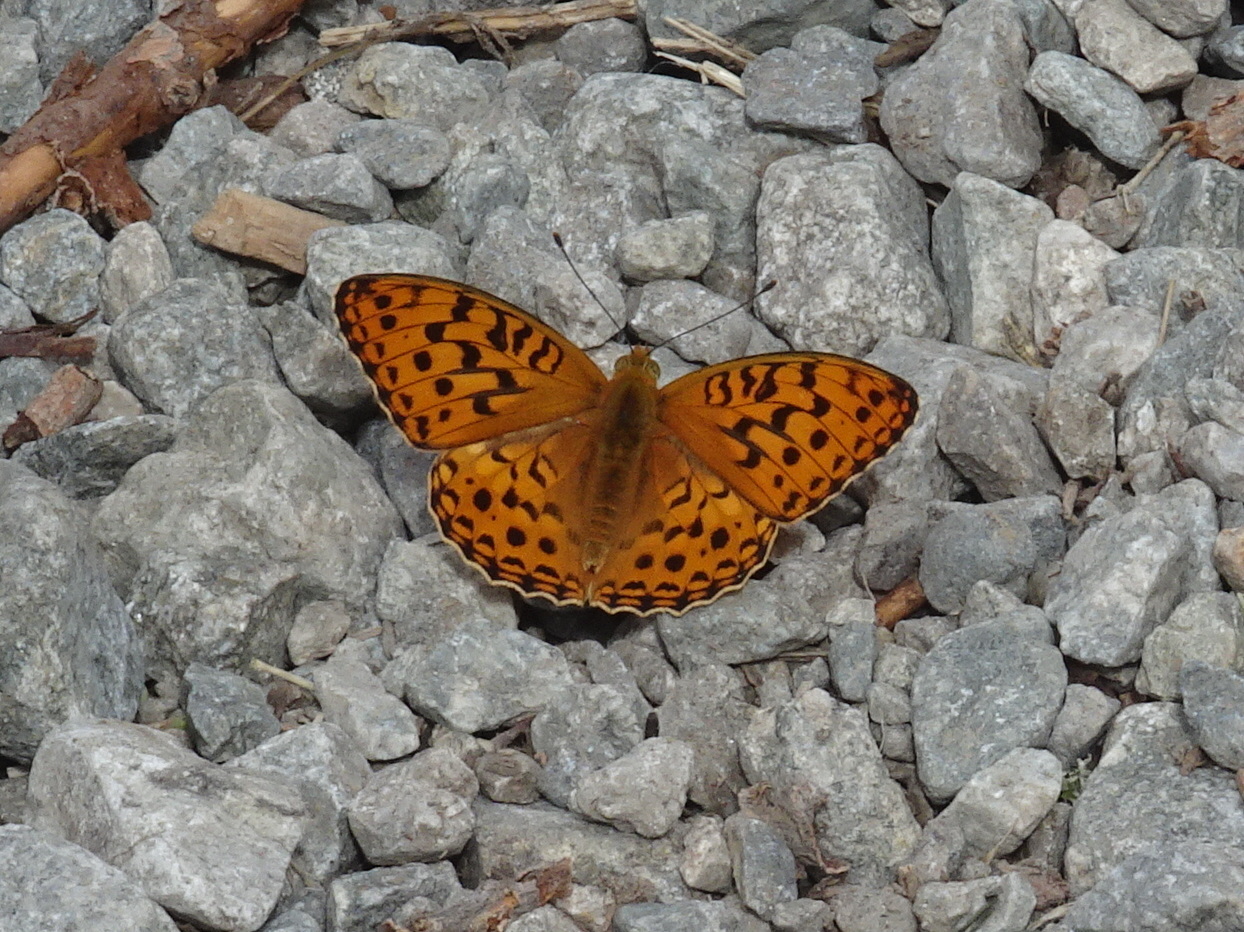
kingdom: Animalia
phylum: Arthropoda
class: Insecta
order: Lepidoptera
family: Nymphalidae
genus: Fabriciana
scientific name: Fabriciana adippe
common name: High brown fritillary
